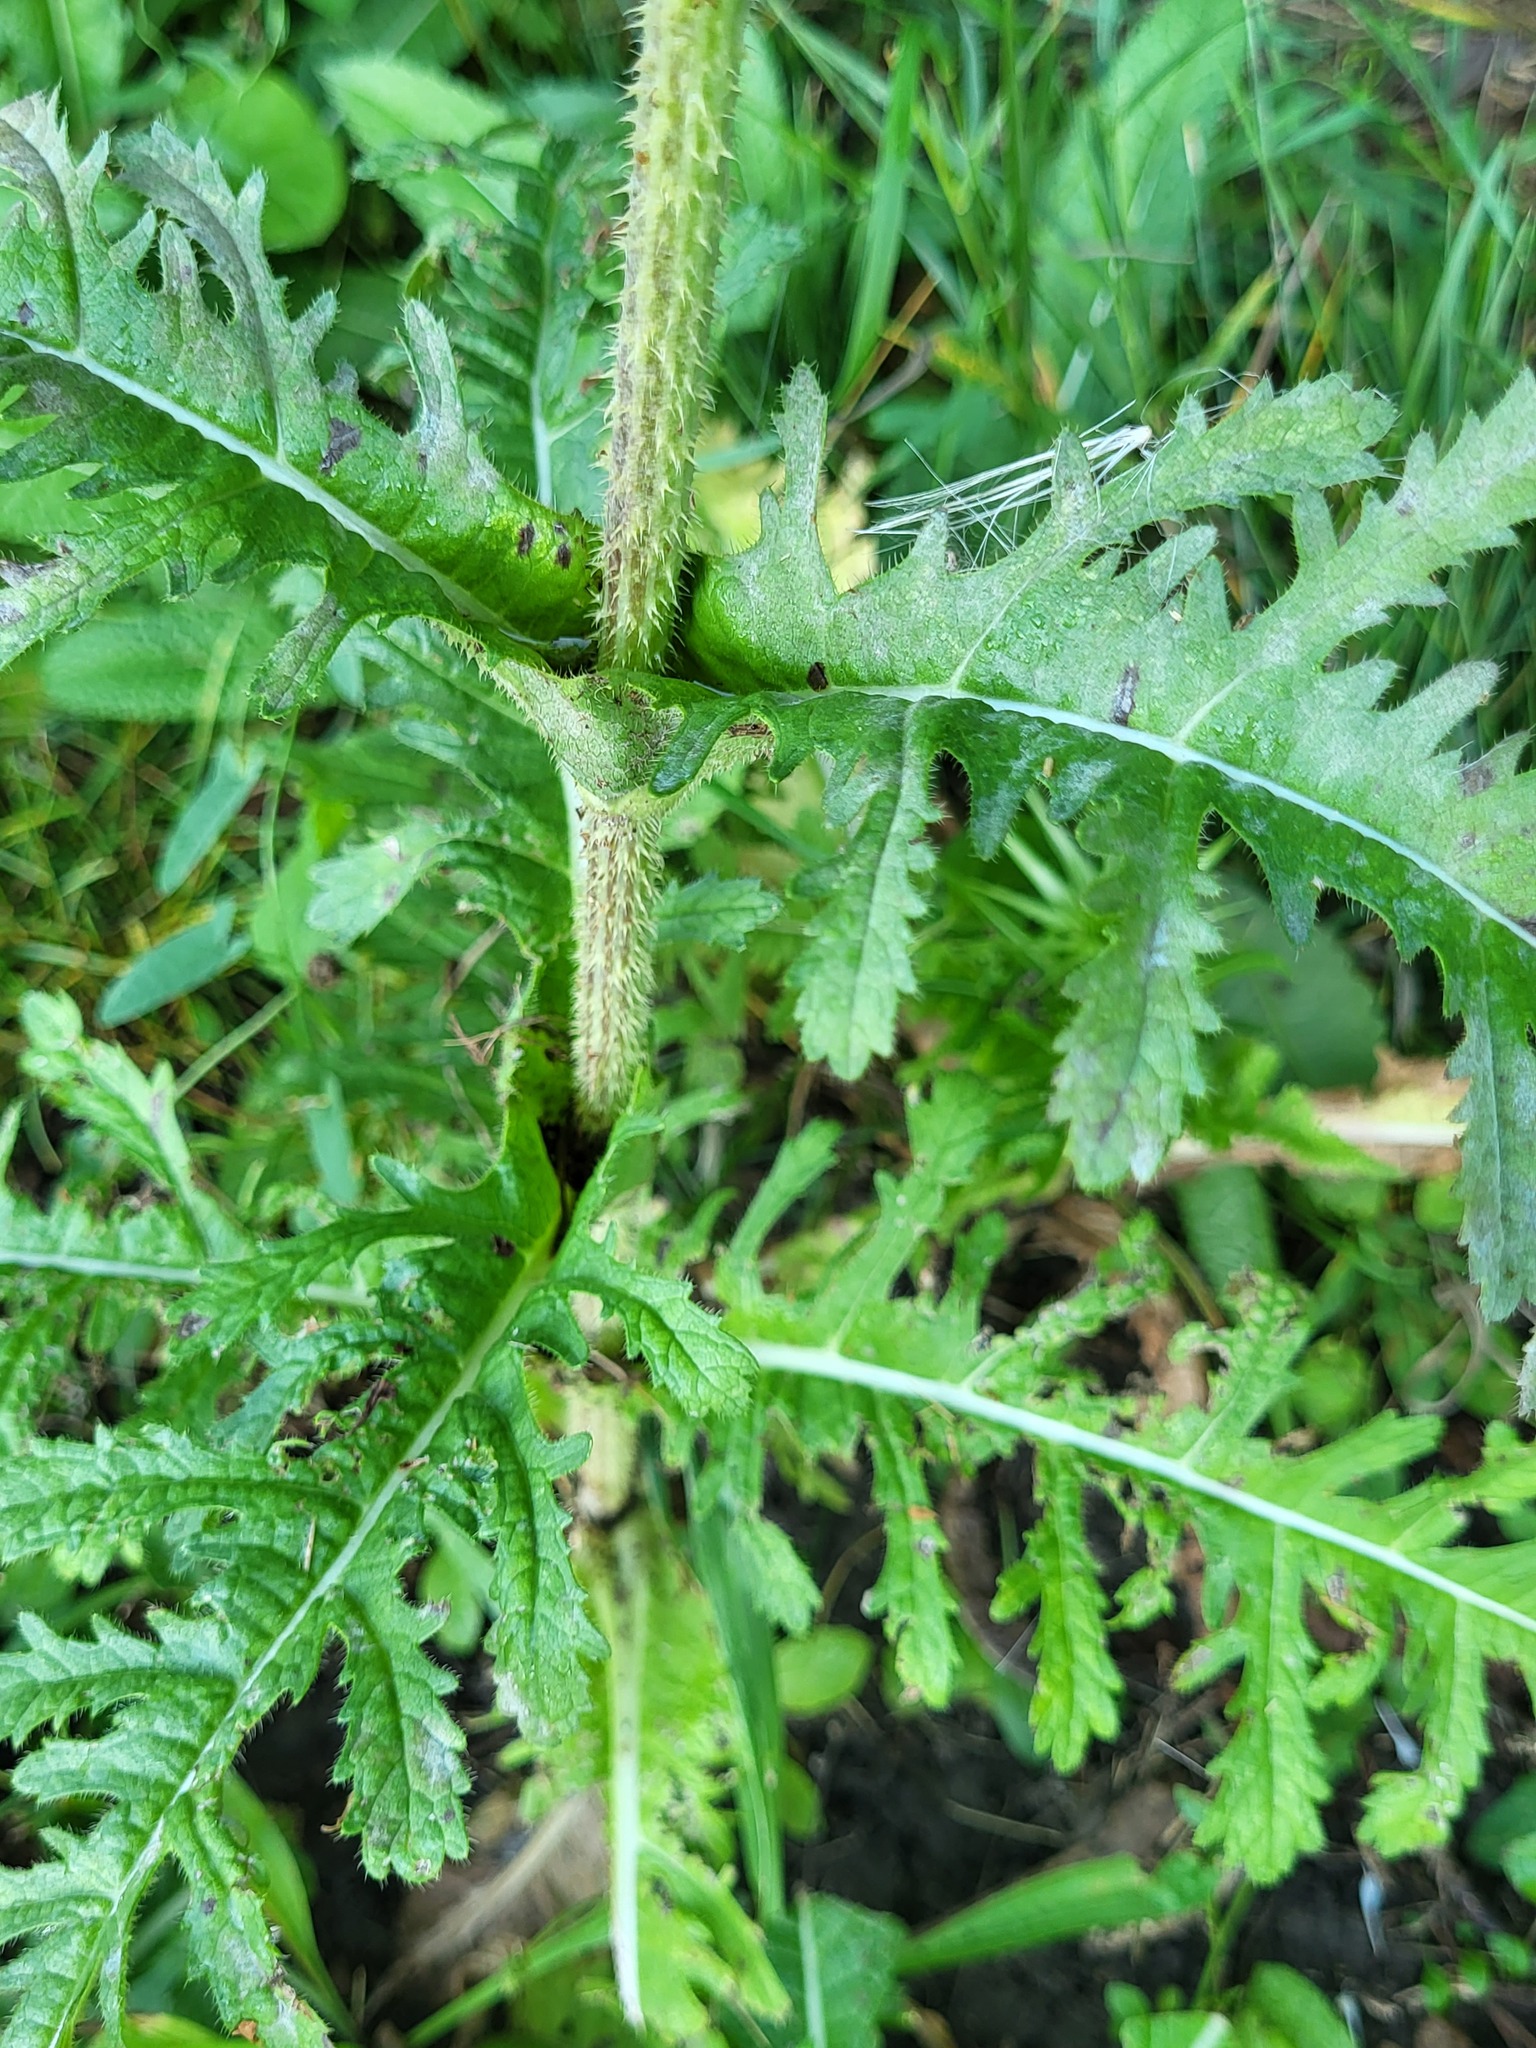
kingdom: Plantae
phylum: Tracheophyta
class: Magnoliopsida
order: Dipsacales
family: Caprifoliaceae
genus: Dipsacus
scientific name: Dipsacus laciniatus
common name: Cut-leaved teasel
